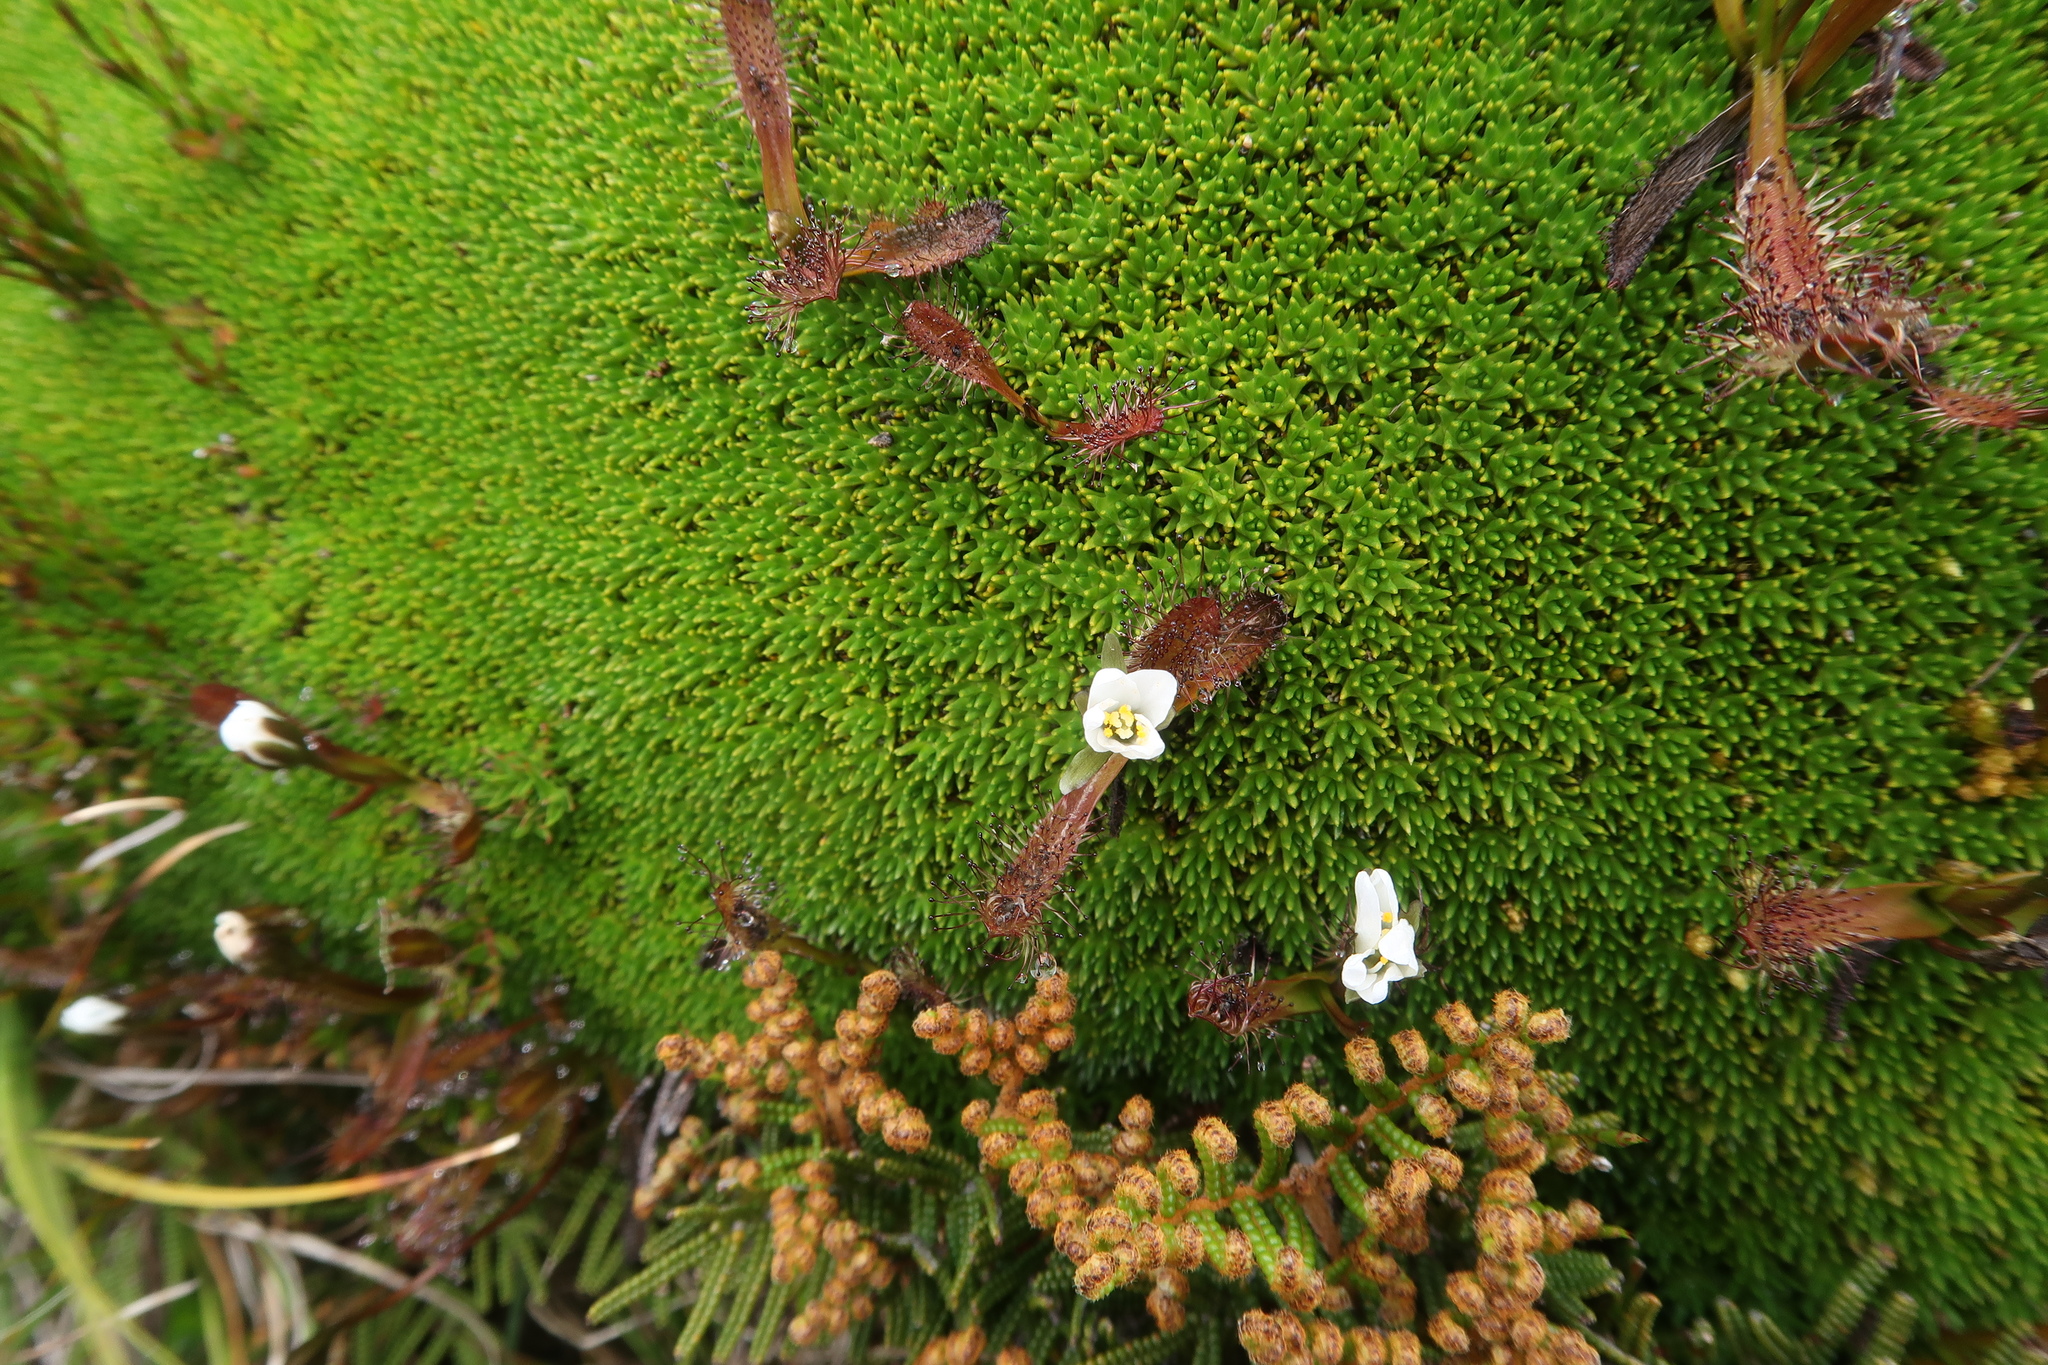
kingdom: Plantae
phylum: Tracheophyta
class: Magnoliopsida
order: Caryophyllales
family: Droseraceae
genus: Drosera
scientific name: Drosera arcturi
